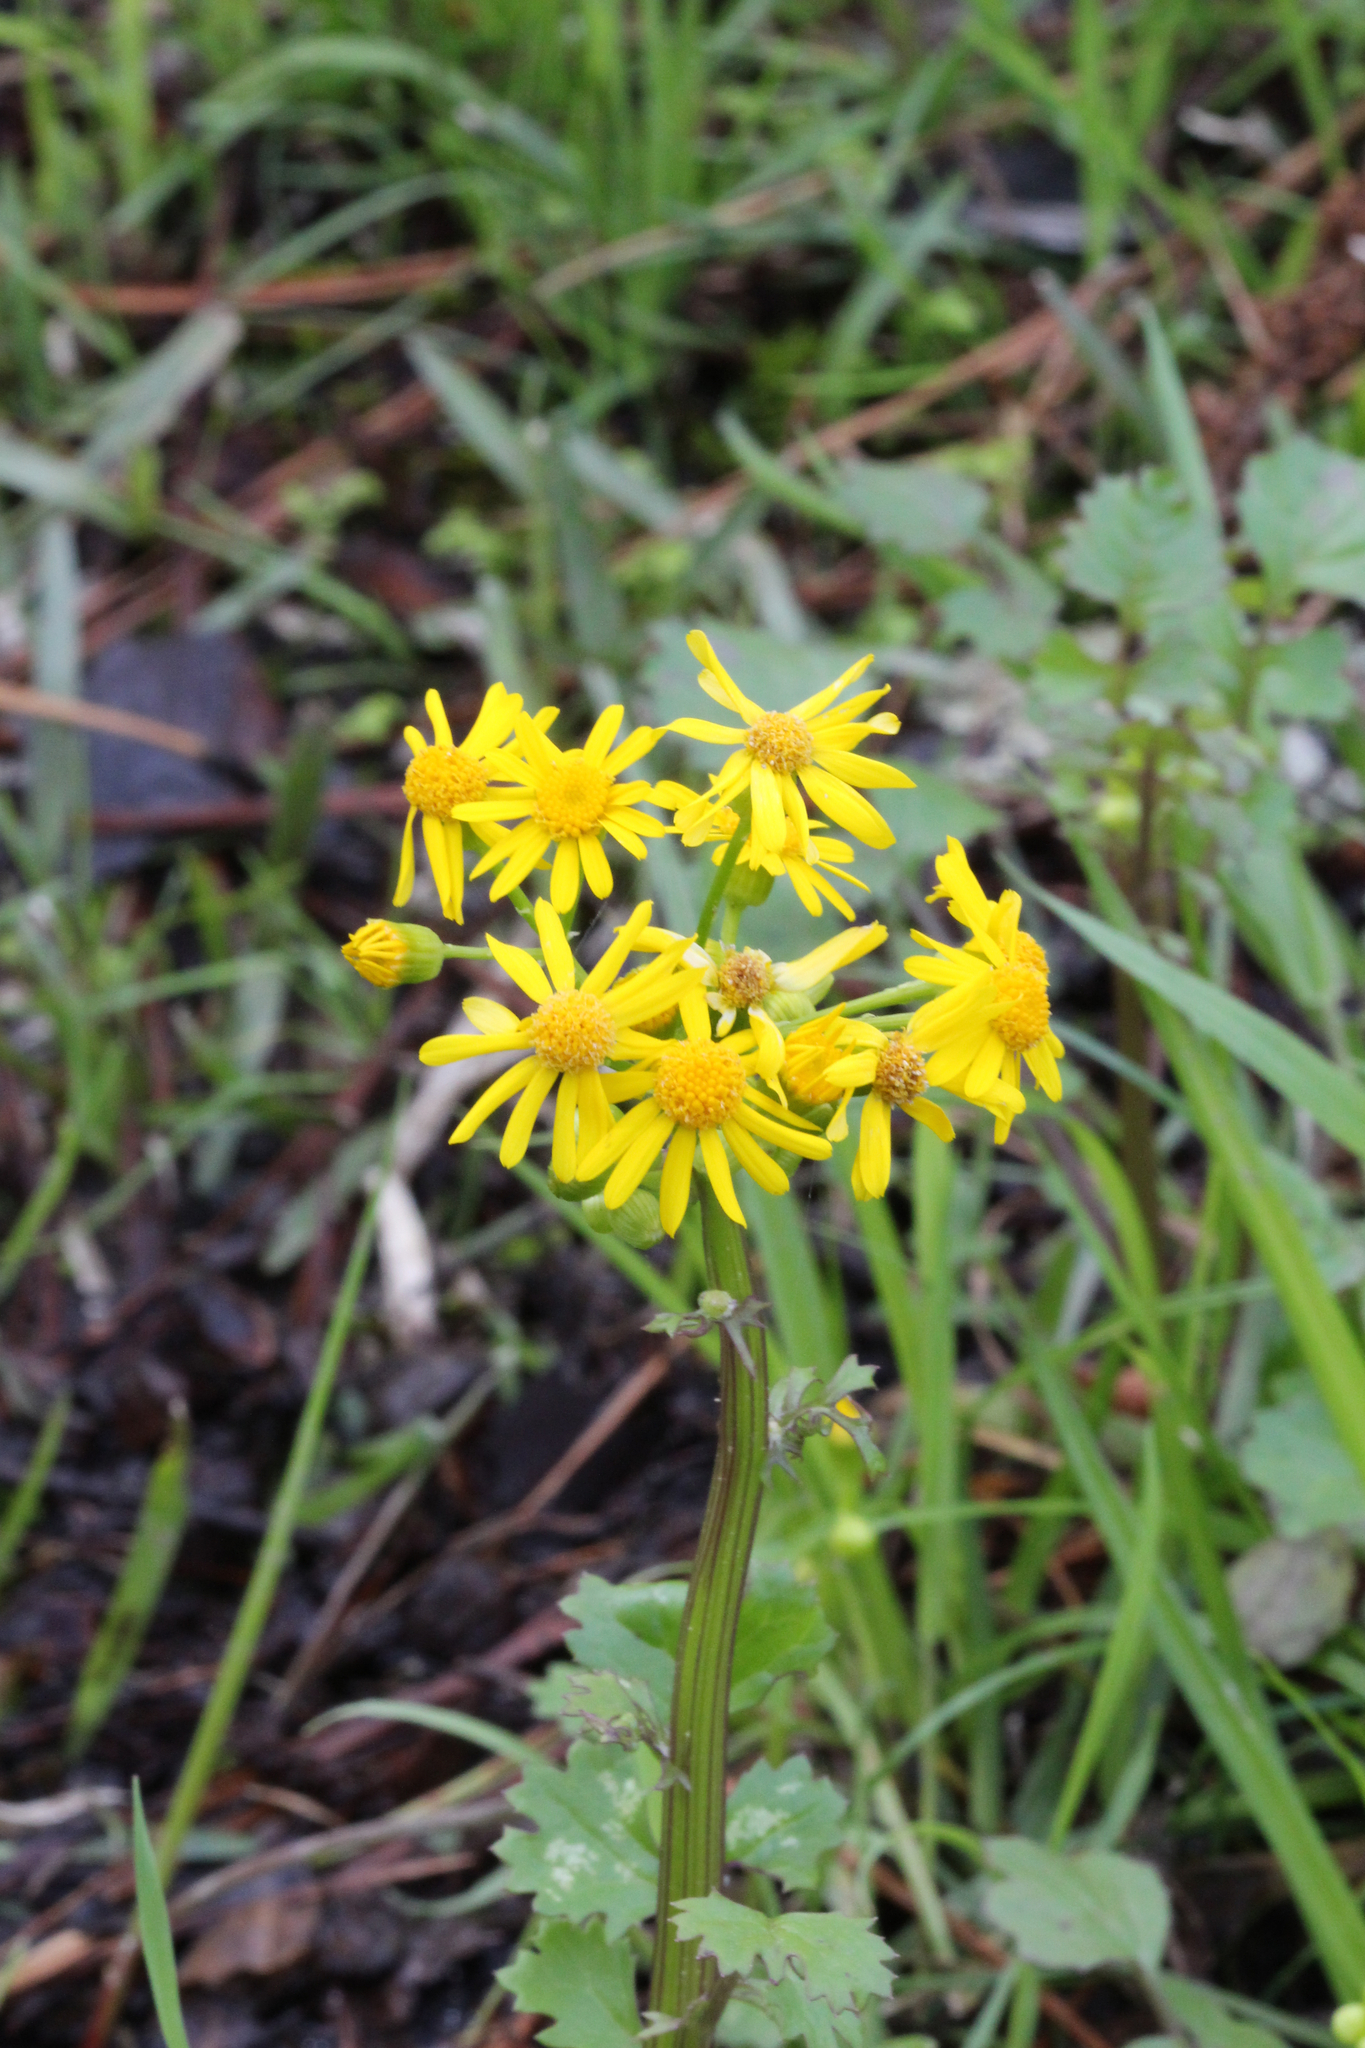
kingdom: Plantae
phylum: Tracheophyta
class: Magnoliopsida
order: Asterales
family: Asteraceae
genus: Packera
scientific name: Packera glabella
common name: Butterweed
